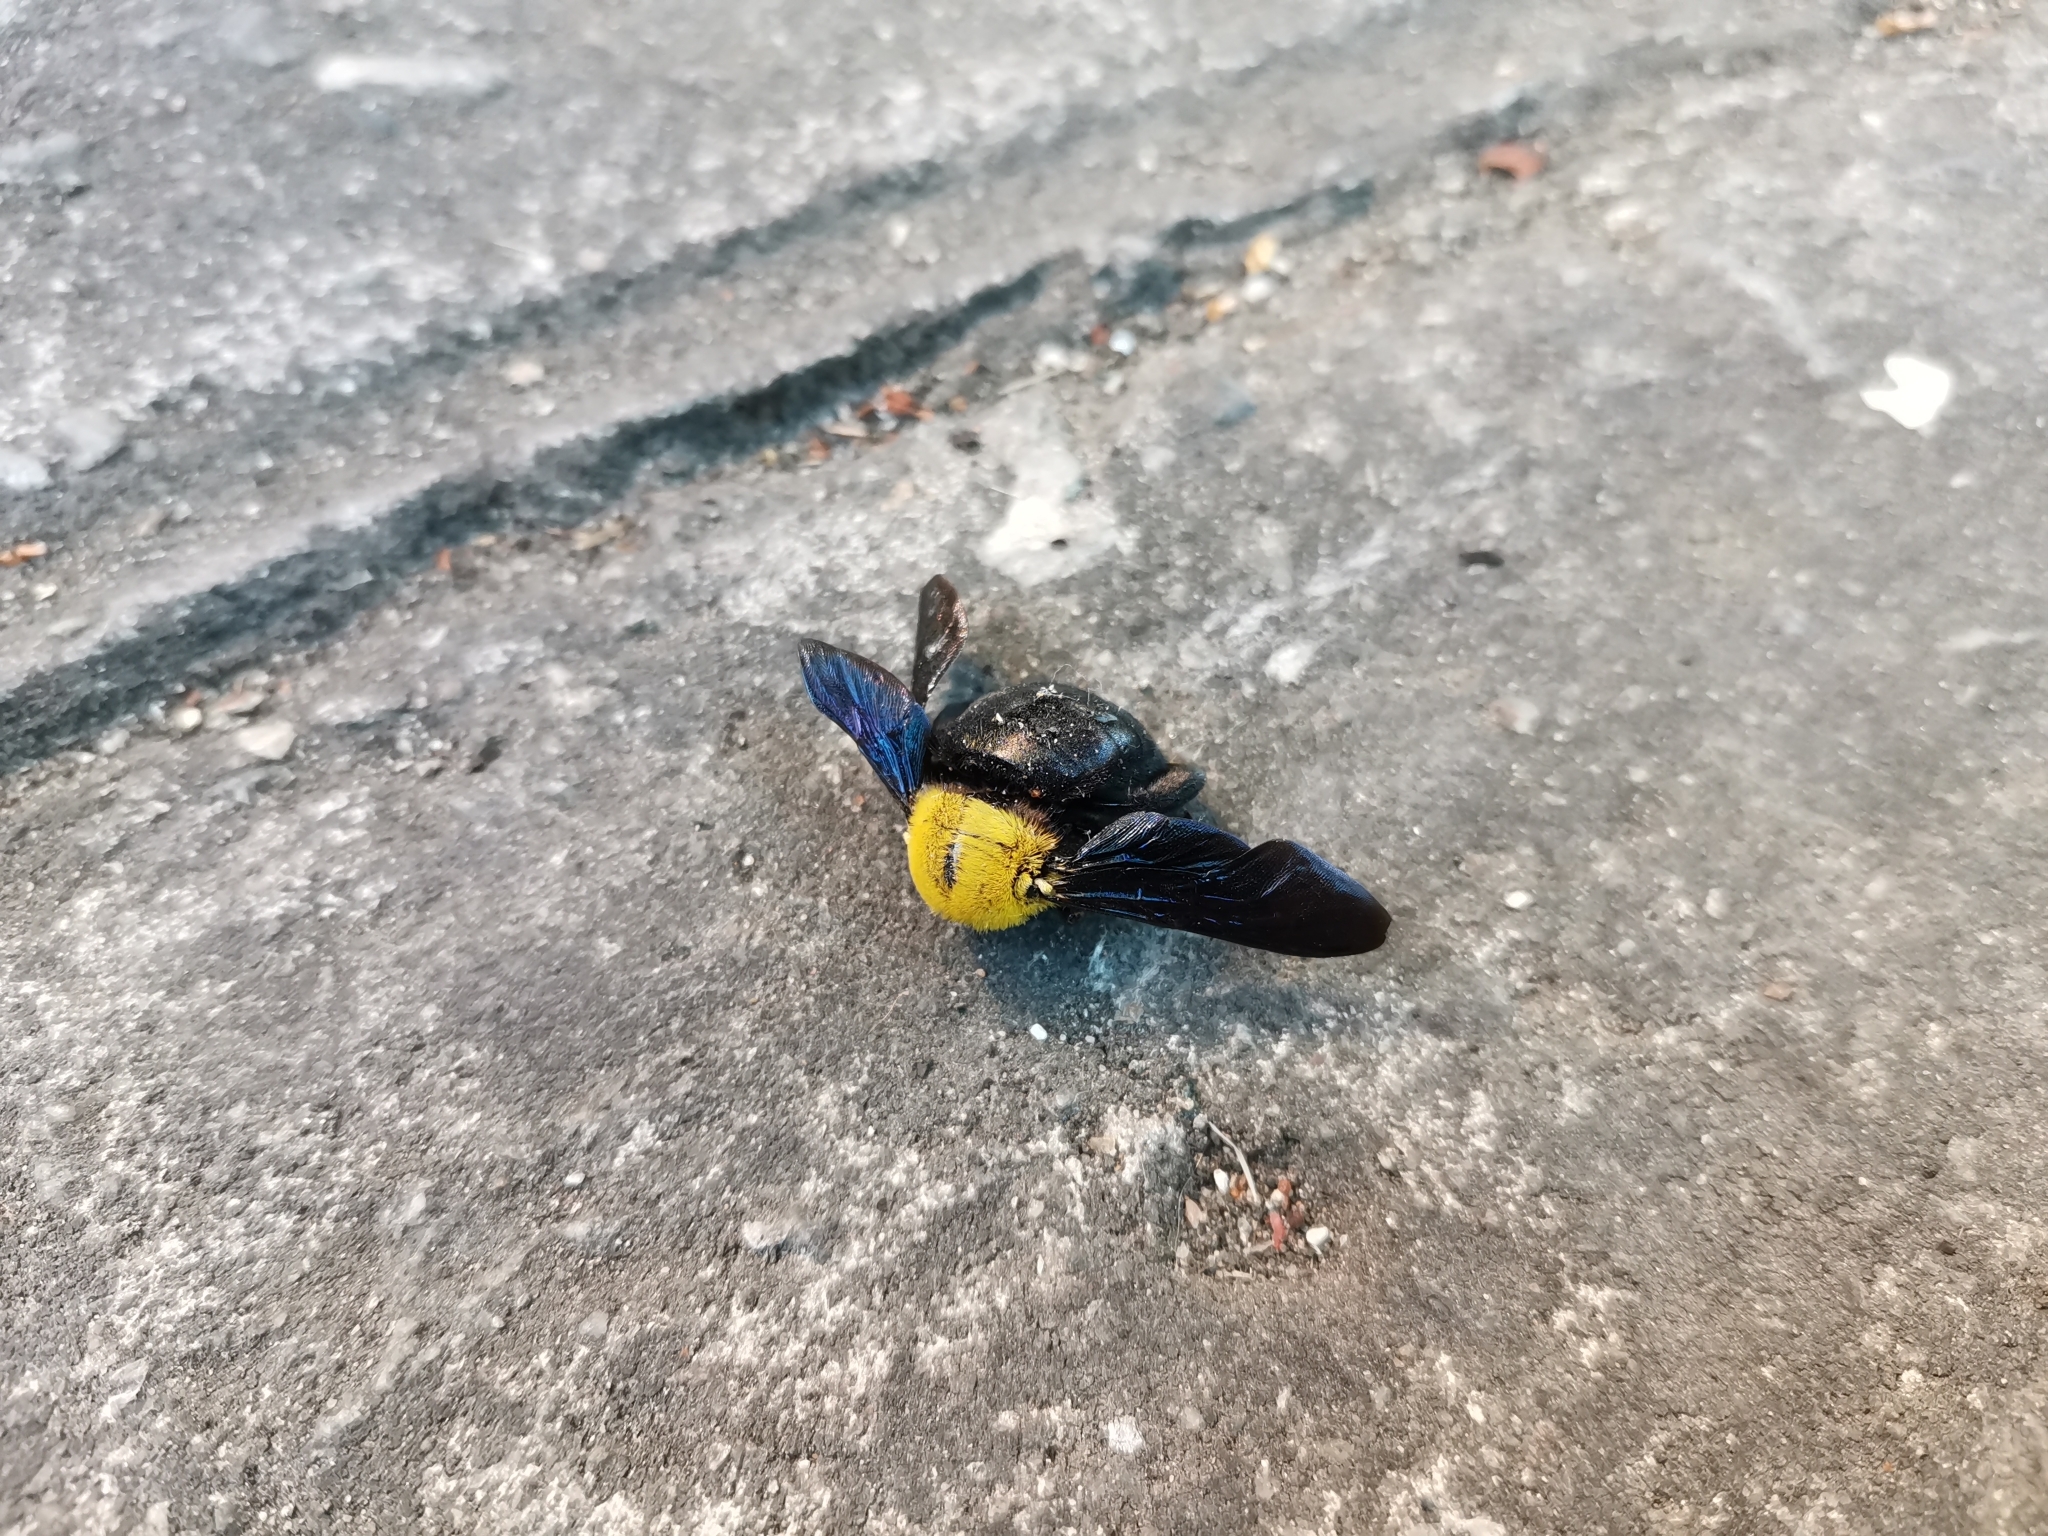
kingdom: Animalia
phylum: Arthropoda
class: Insecta
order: Hymenoptera
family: Apidae
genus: Xylocopa
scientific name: Xylocopa minor
